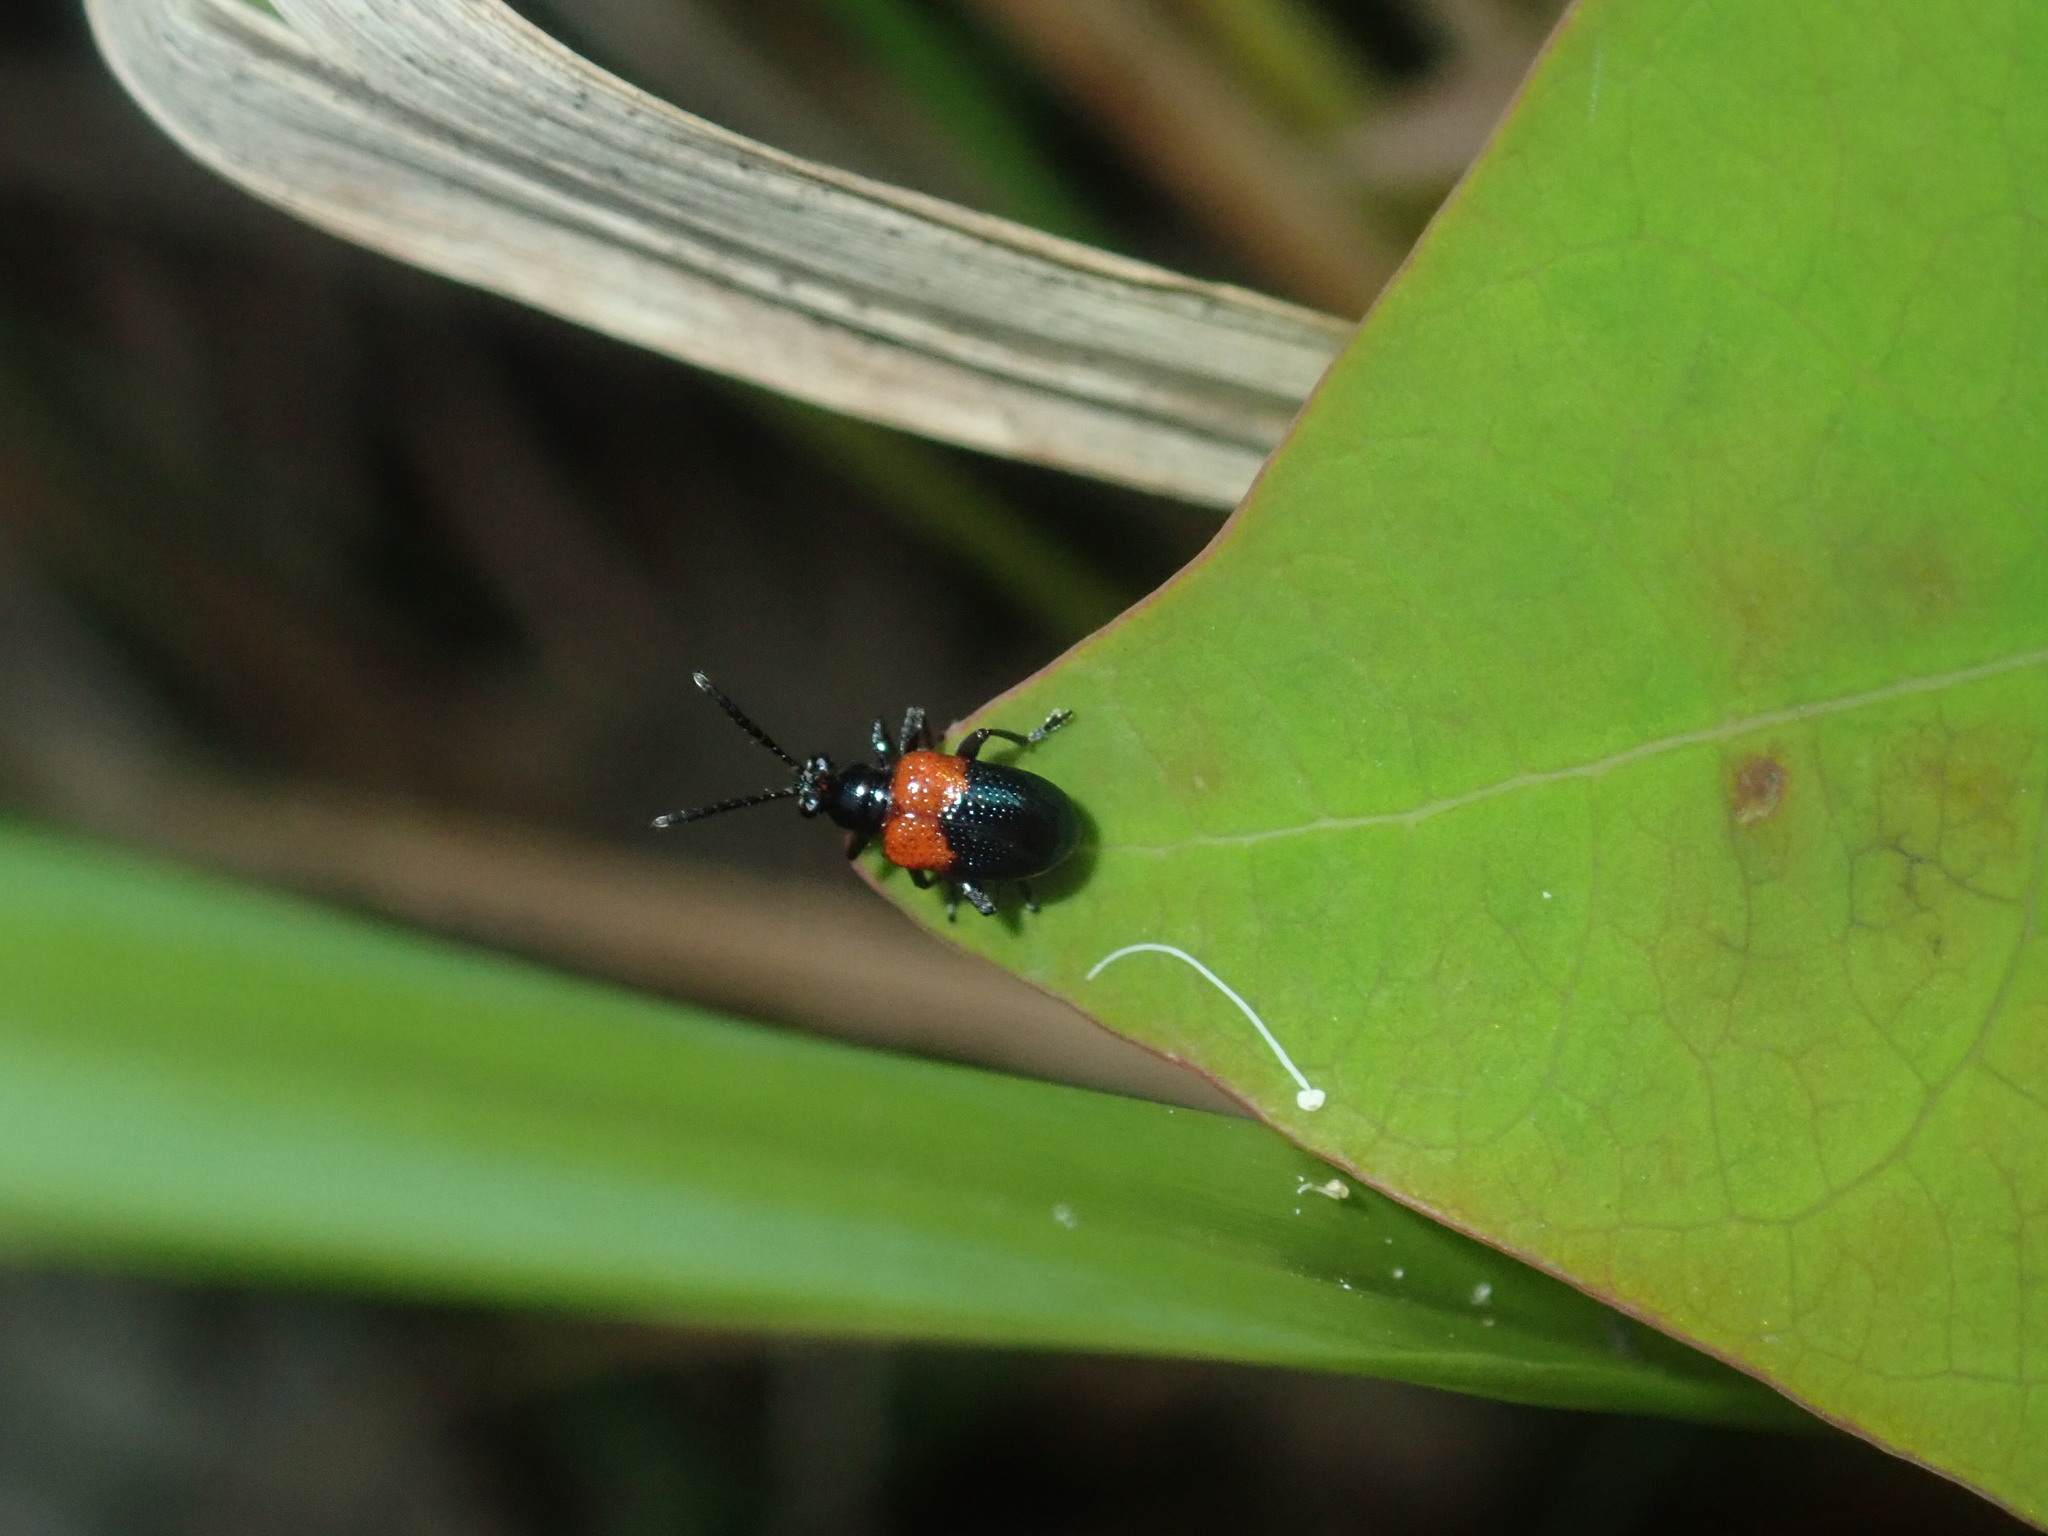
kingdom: Animalia
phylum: Arthropoda
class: Insecta
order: Coleoptera
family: Chrysomelidae
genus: Lema
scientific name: Lema
